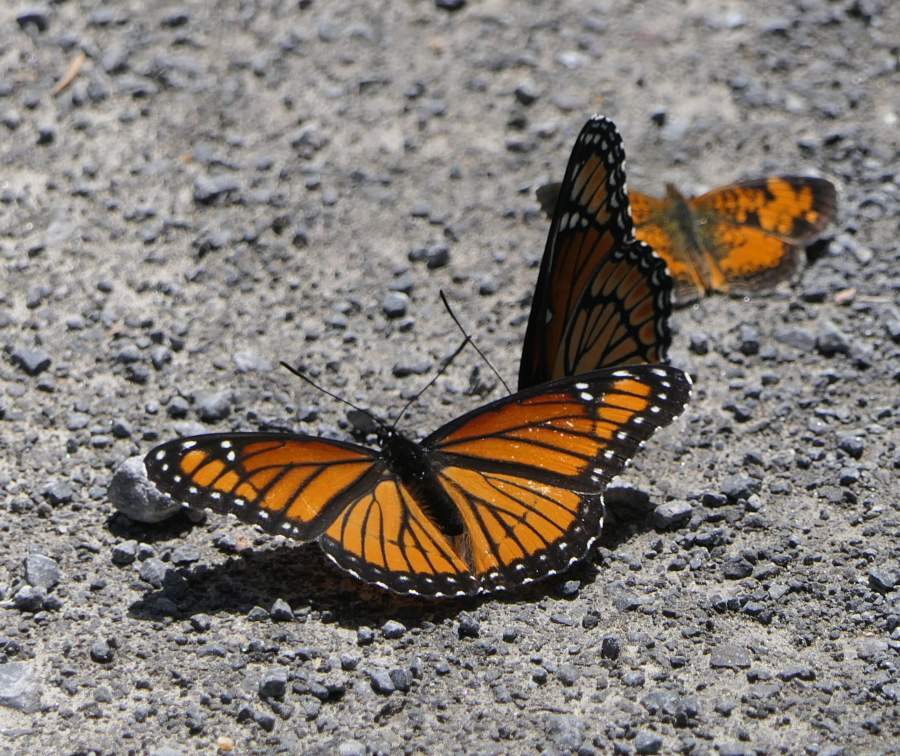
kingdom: Animalia
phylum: Arthropoda
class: Insecta
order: Lepidoptera
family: Nymphalidae
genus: Limenitis
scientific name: Limenitis archippus
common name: Viceroy
